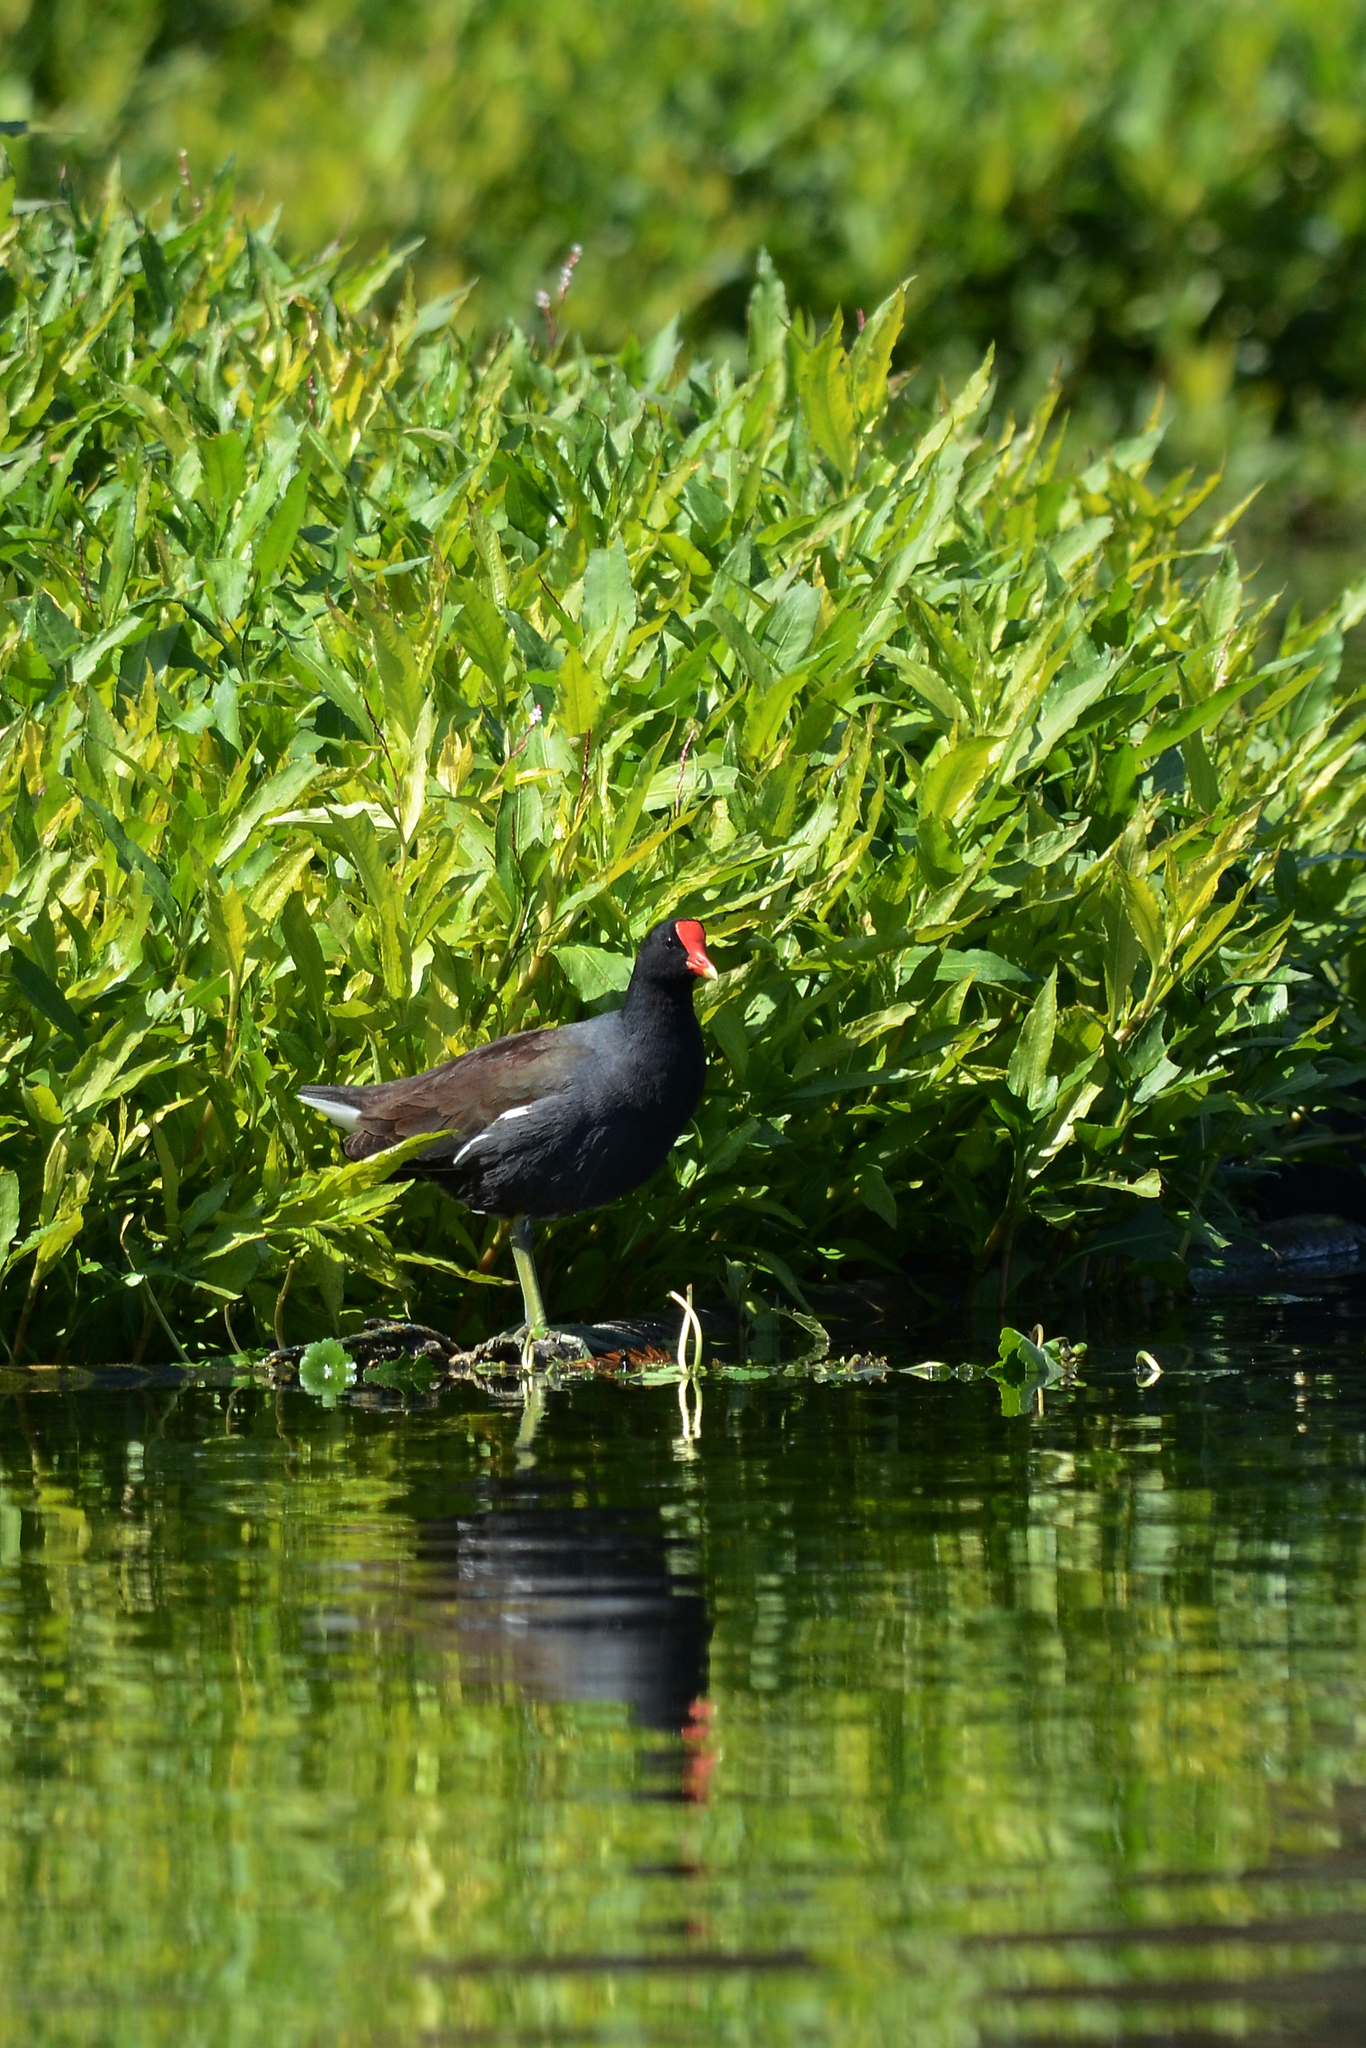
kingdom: Animalia
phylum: Chordata
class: Aves
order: Gruiformes
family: Rallidae
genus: Gallinula
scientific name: Gallinula chloropus
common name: Common moorhen
